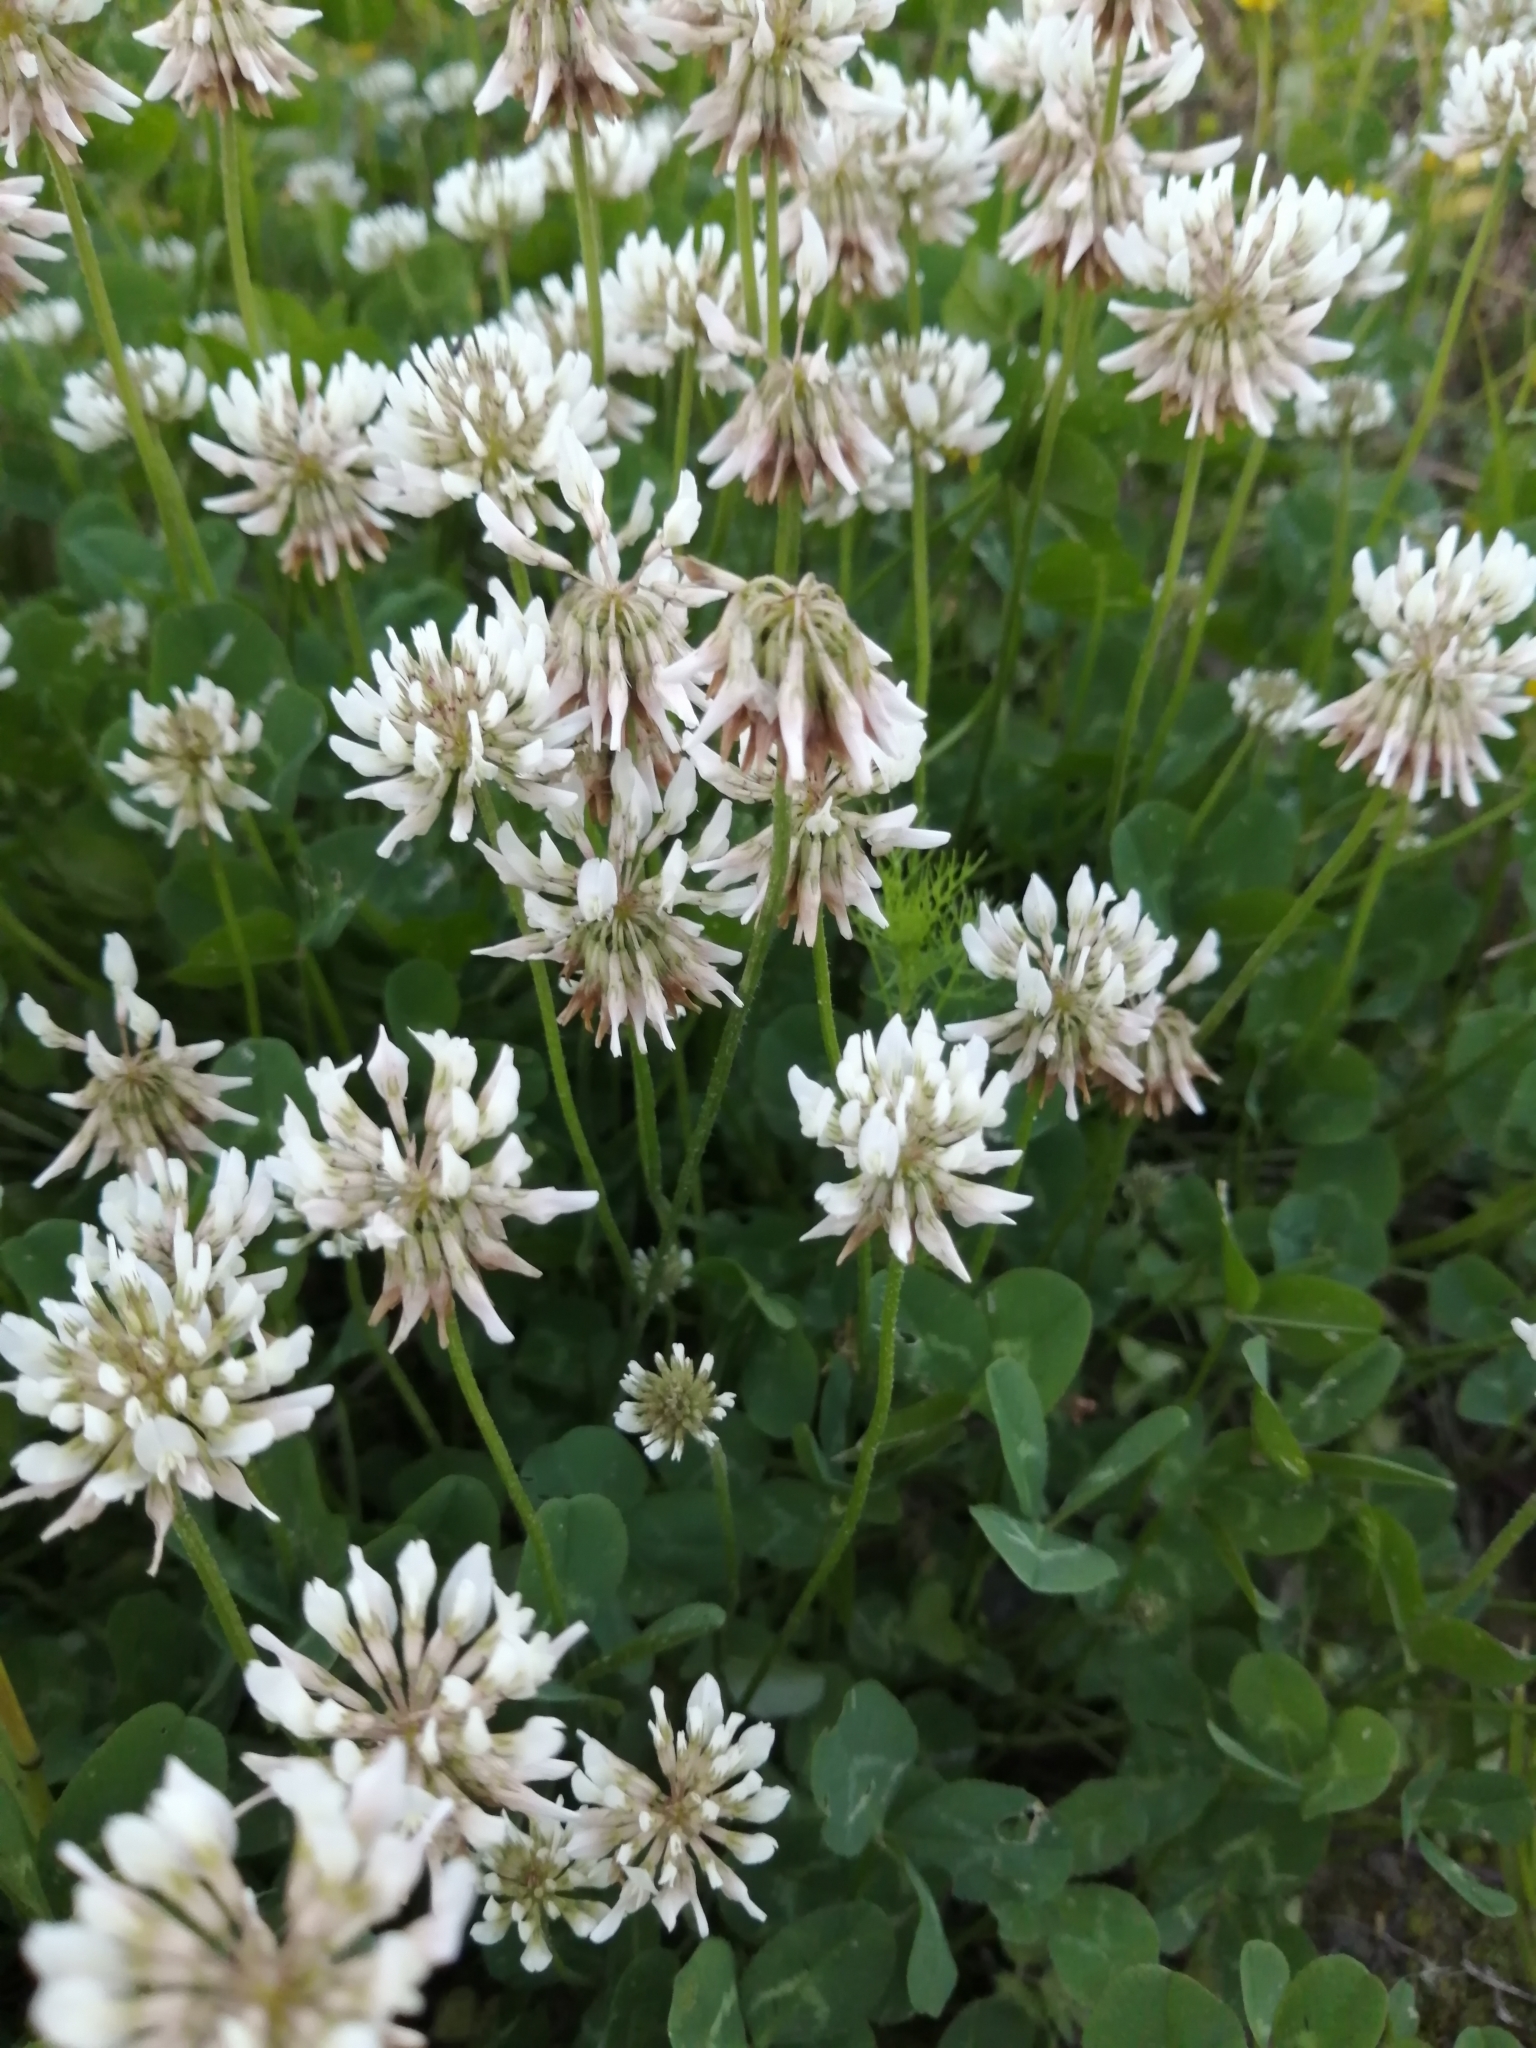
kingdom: Plantae
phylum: Tracheophyta
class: Magnoliopsida
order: Fabales
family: Fabaceae
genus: Trifolium
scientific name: Trifolium repens
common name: White clover
